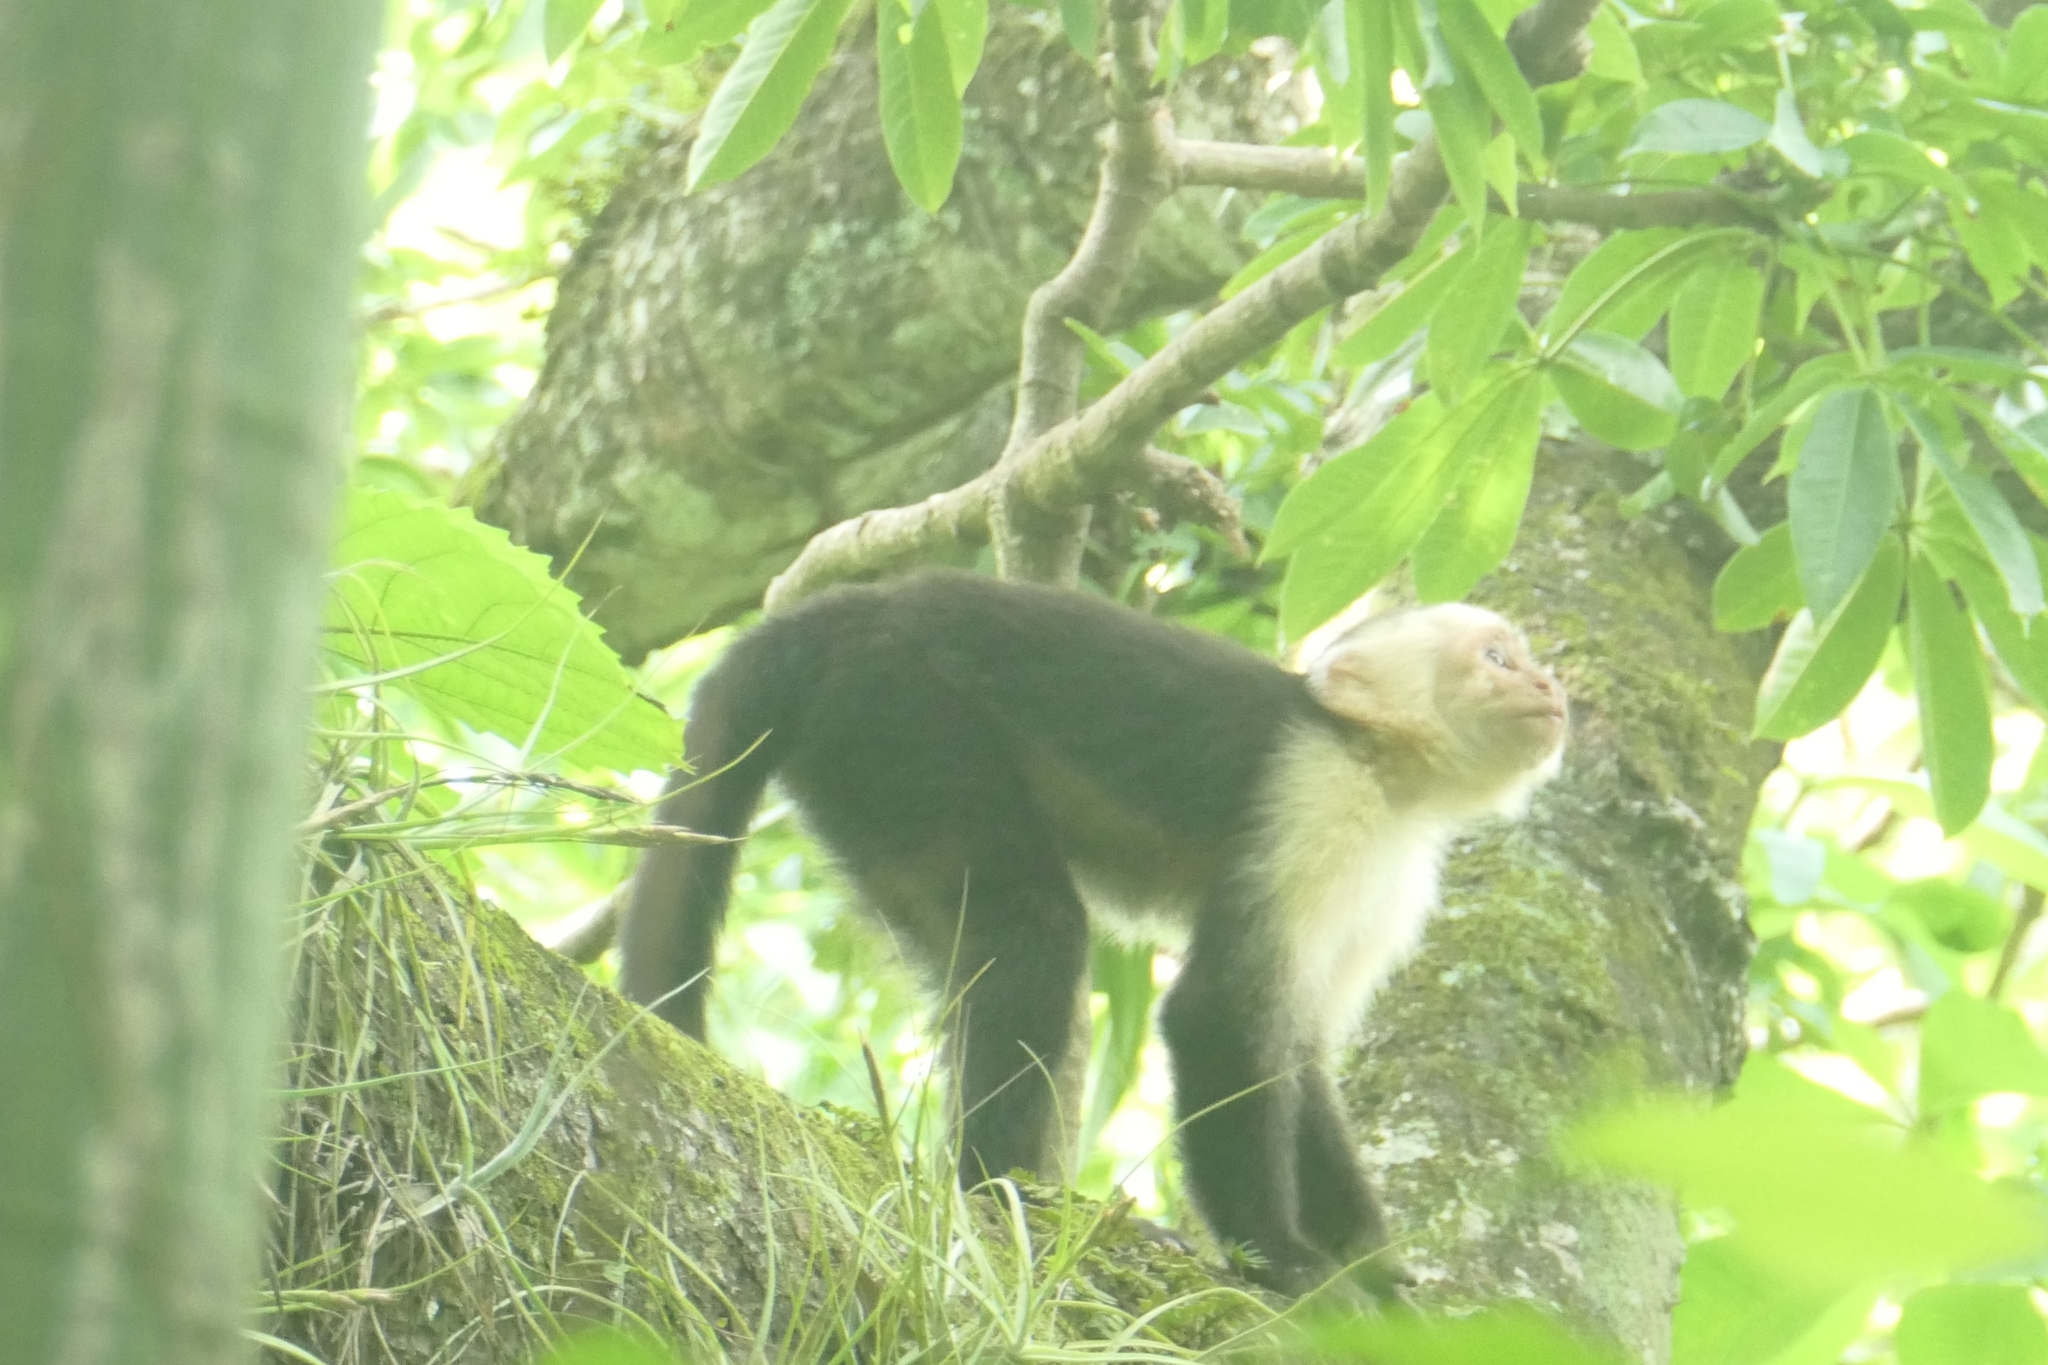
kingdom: Animalia
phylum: Chordata
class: Mammalia
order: Primates
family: Cebidae
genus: Cebus
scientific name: Cebus imitator
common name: Panamanian white-faced capuchin
